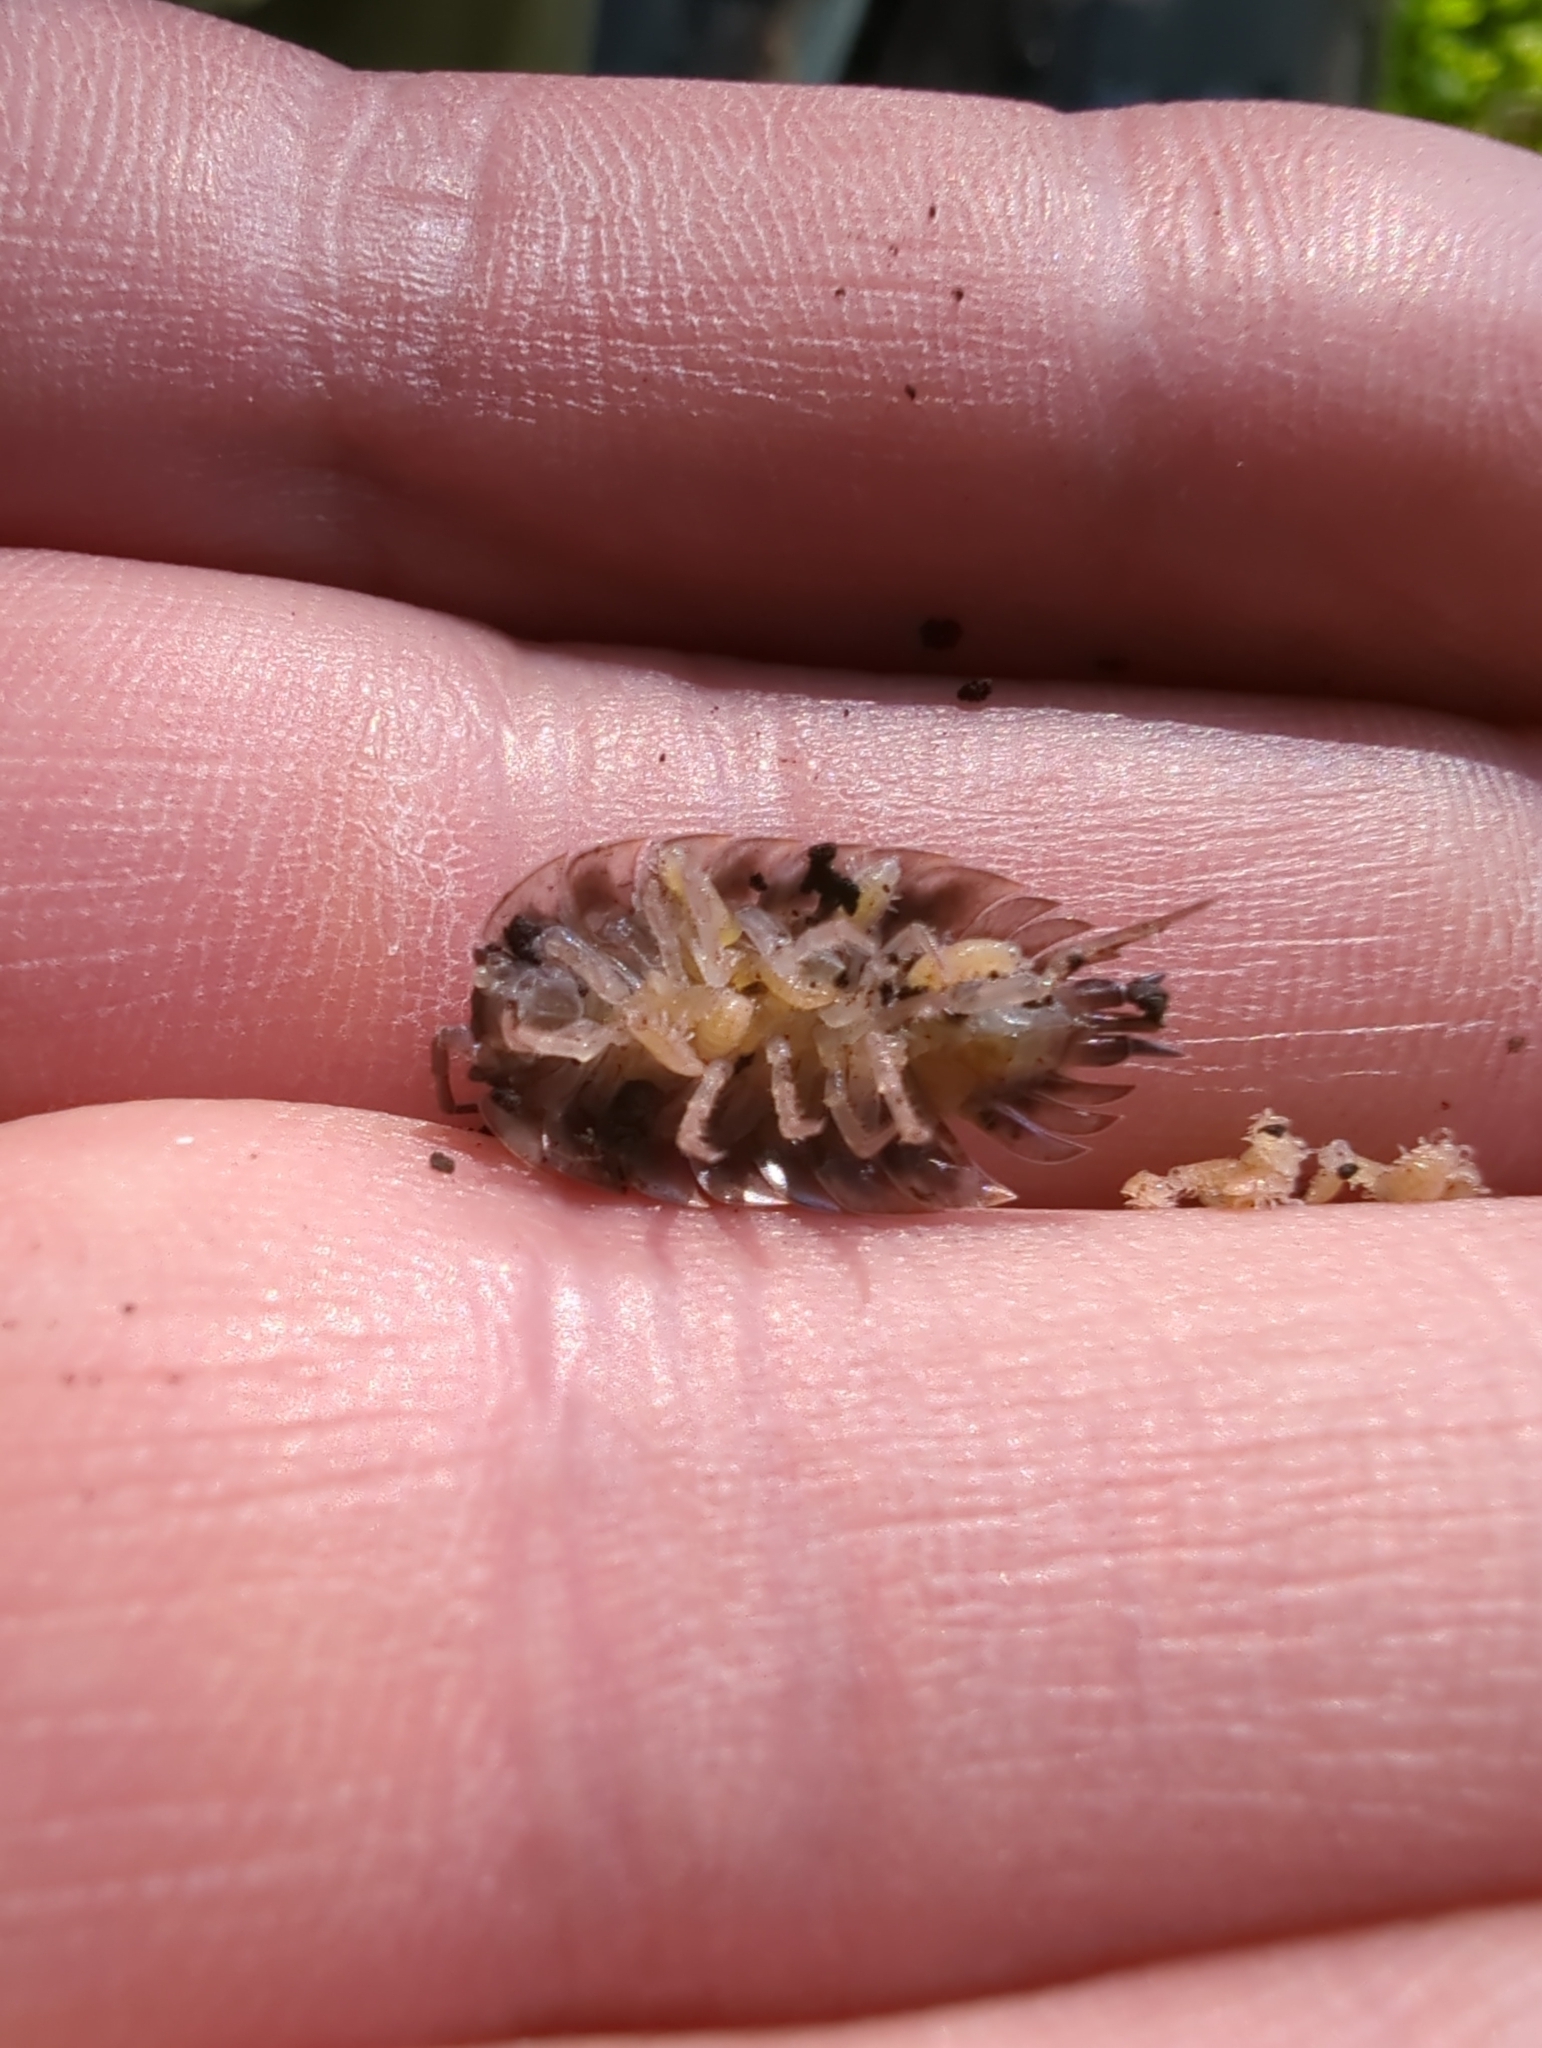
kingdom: Animalia
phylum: Arthropoda
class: Malacostraca
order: Isopoda
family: Oniscidae
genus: Oniscus
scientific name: Oniscus asellus
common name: Common shiny woodlouse
